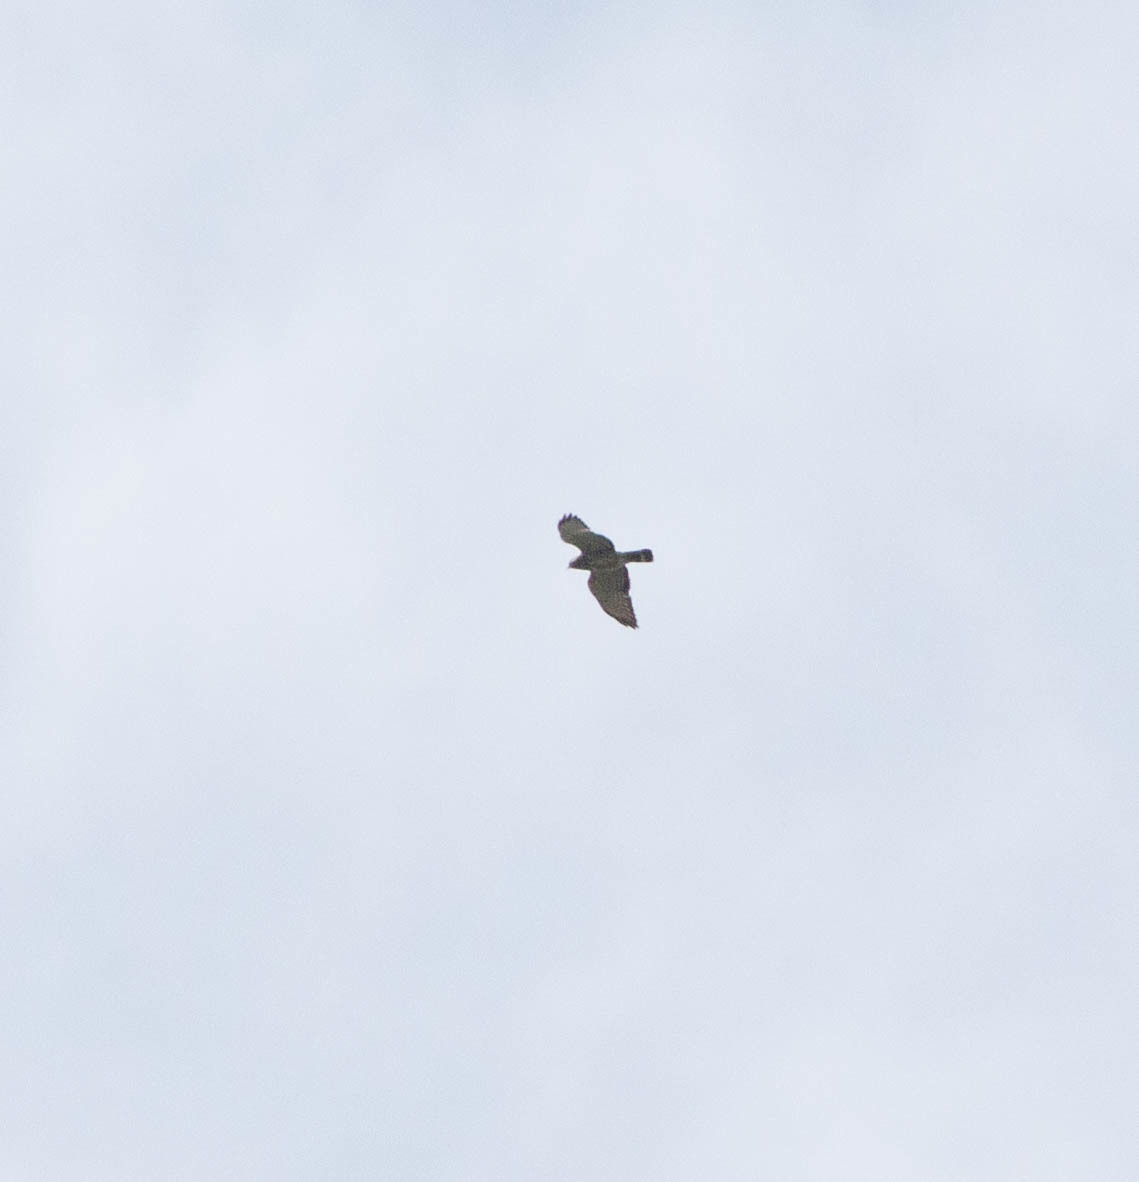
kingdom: Animalia
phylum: Chordata
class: Aves
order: Accipitriformes
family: Accipitridae
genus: Buteo
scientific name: Buteo platypterus
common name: Broad-winged hawk
